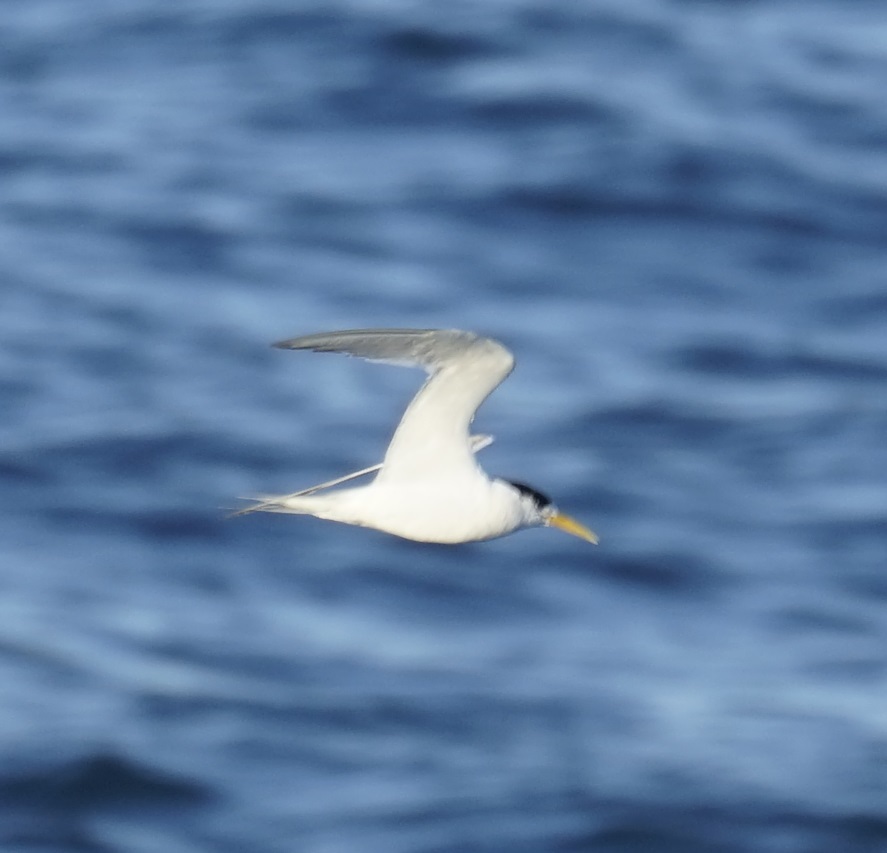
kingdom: Animalia
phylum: Chordata
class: Aves
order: Charadriiformes
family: Laridae
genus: Thalasseus
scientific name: Thalasseus bergii
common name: Greater crested tern
